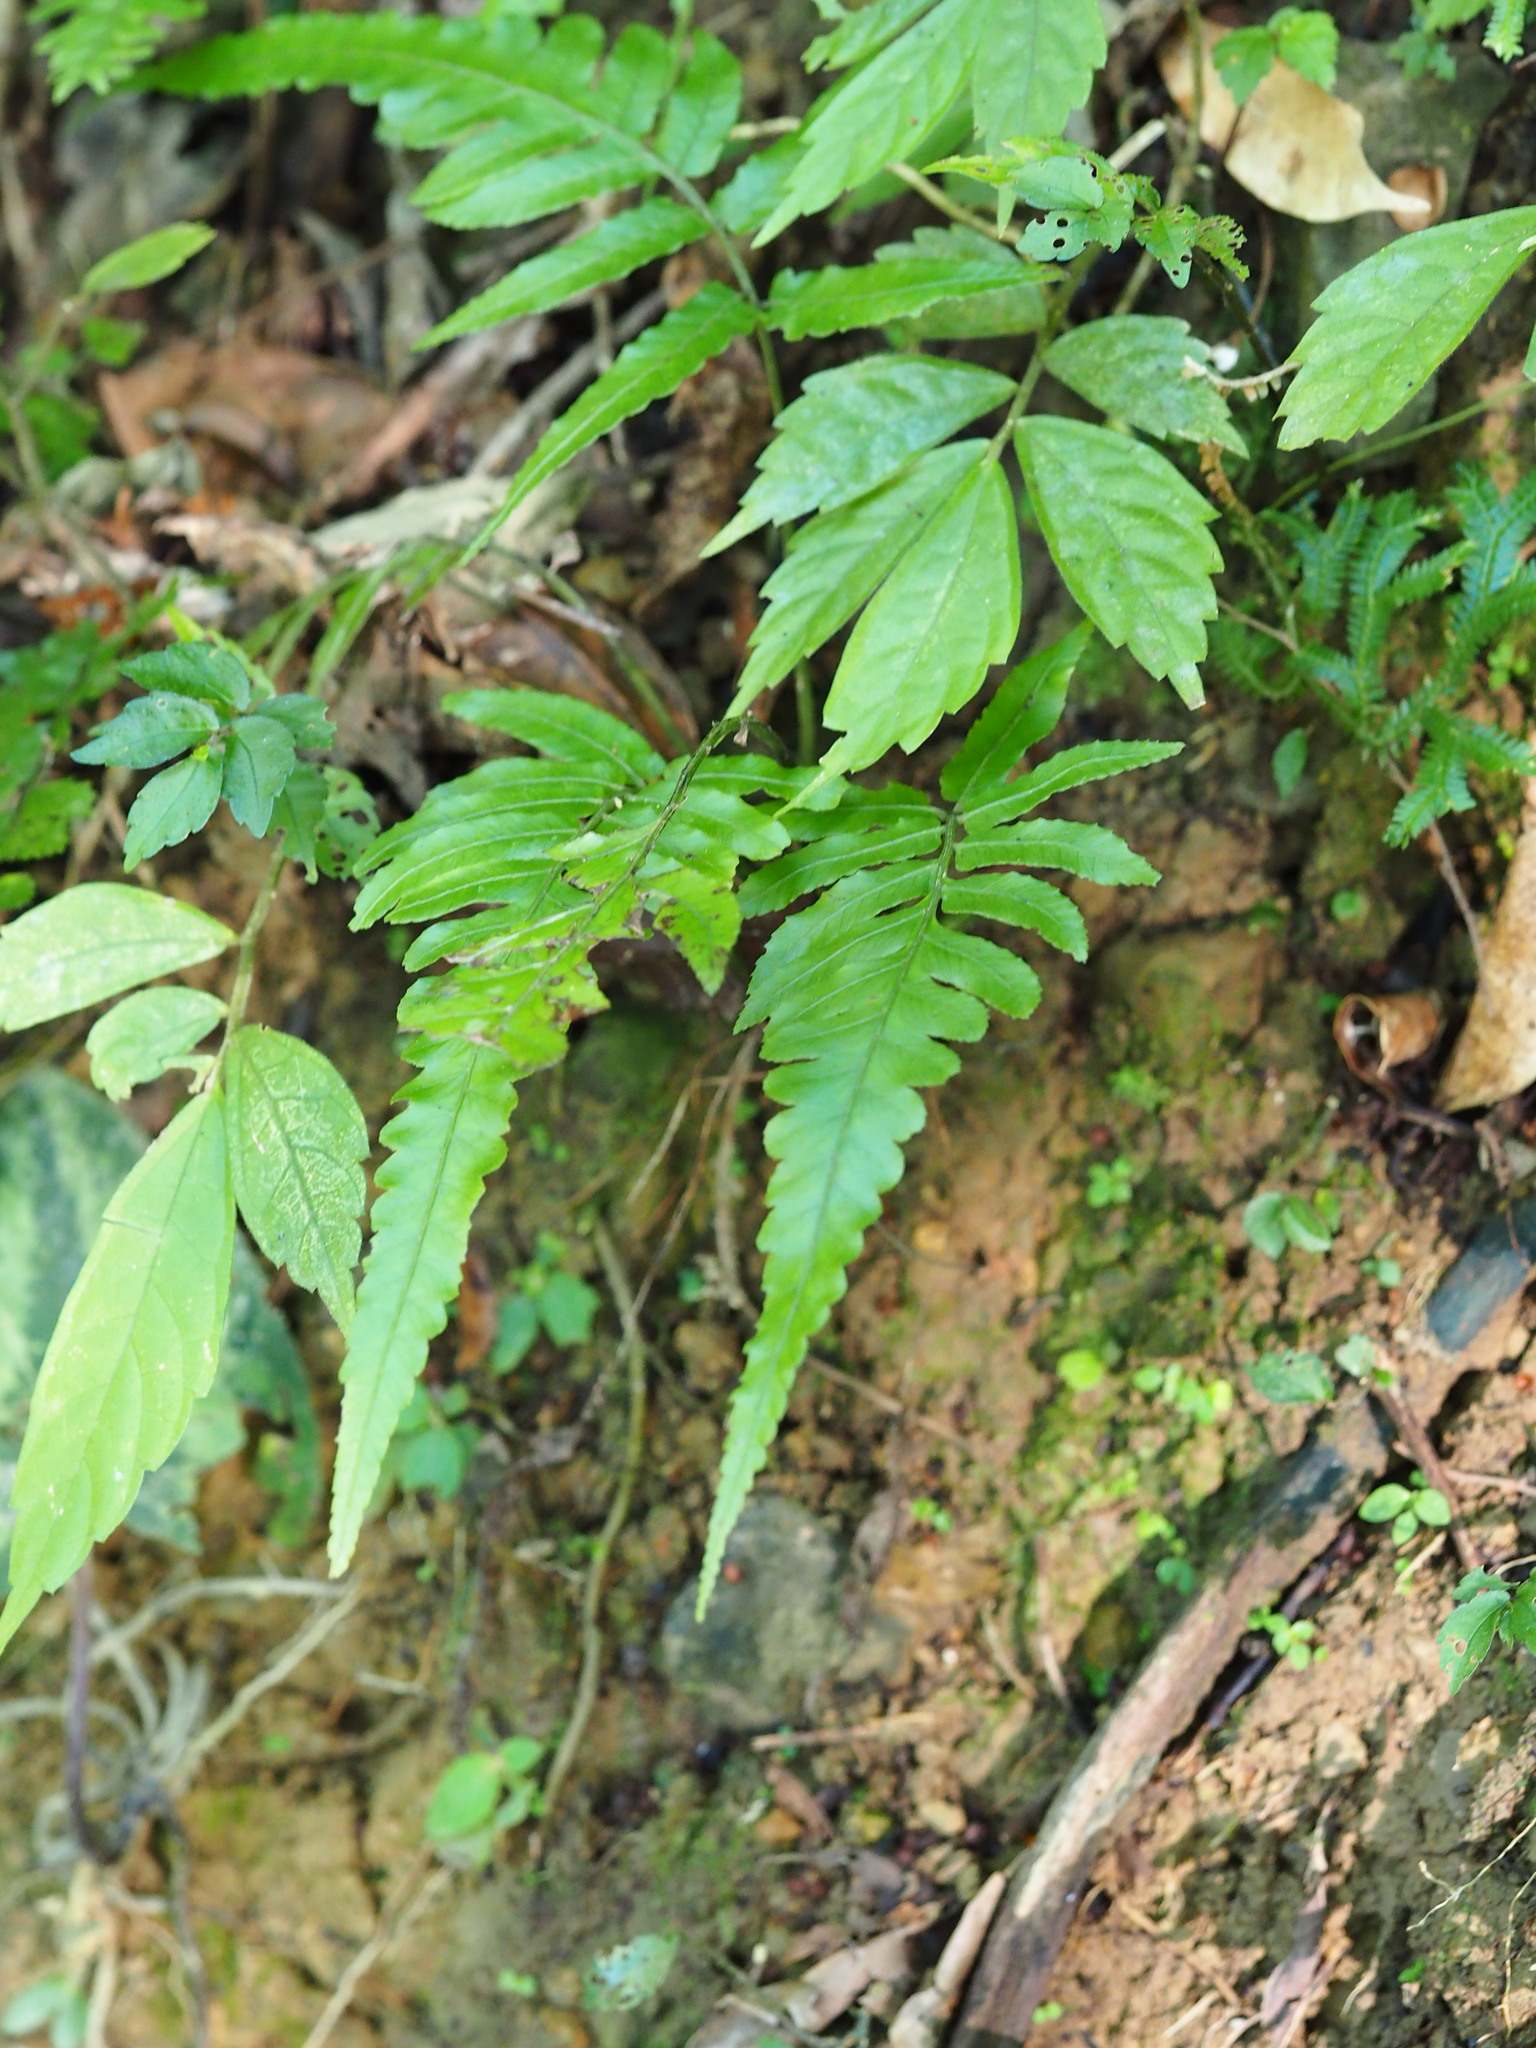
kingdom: Plantae
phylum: Tracheophyta
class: Polypodiopsida
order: Polypodiales
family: Athyriaceae
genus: Diplazium
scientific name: Diplazium dilatatum
